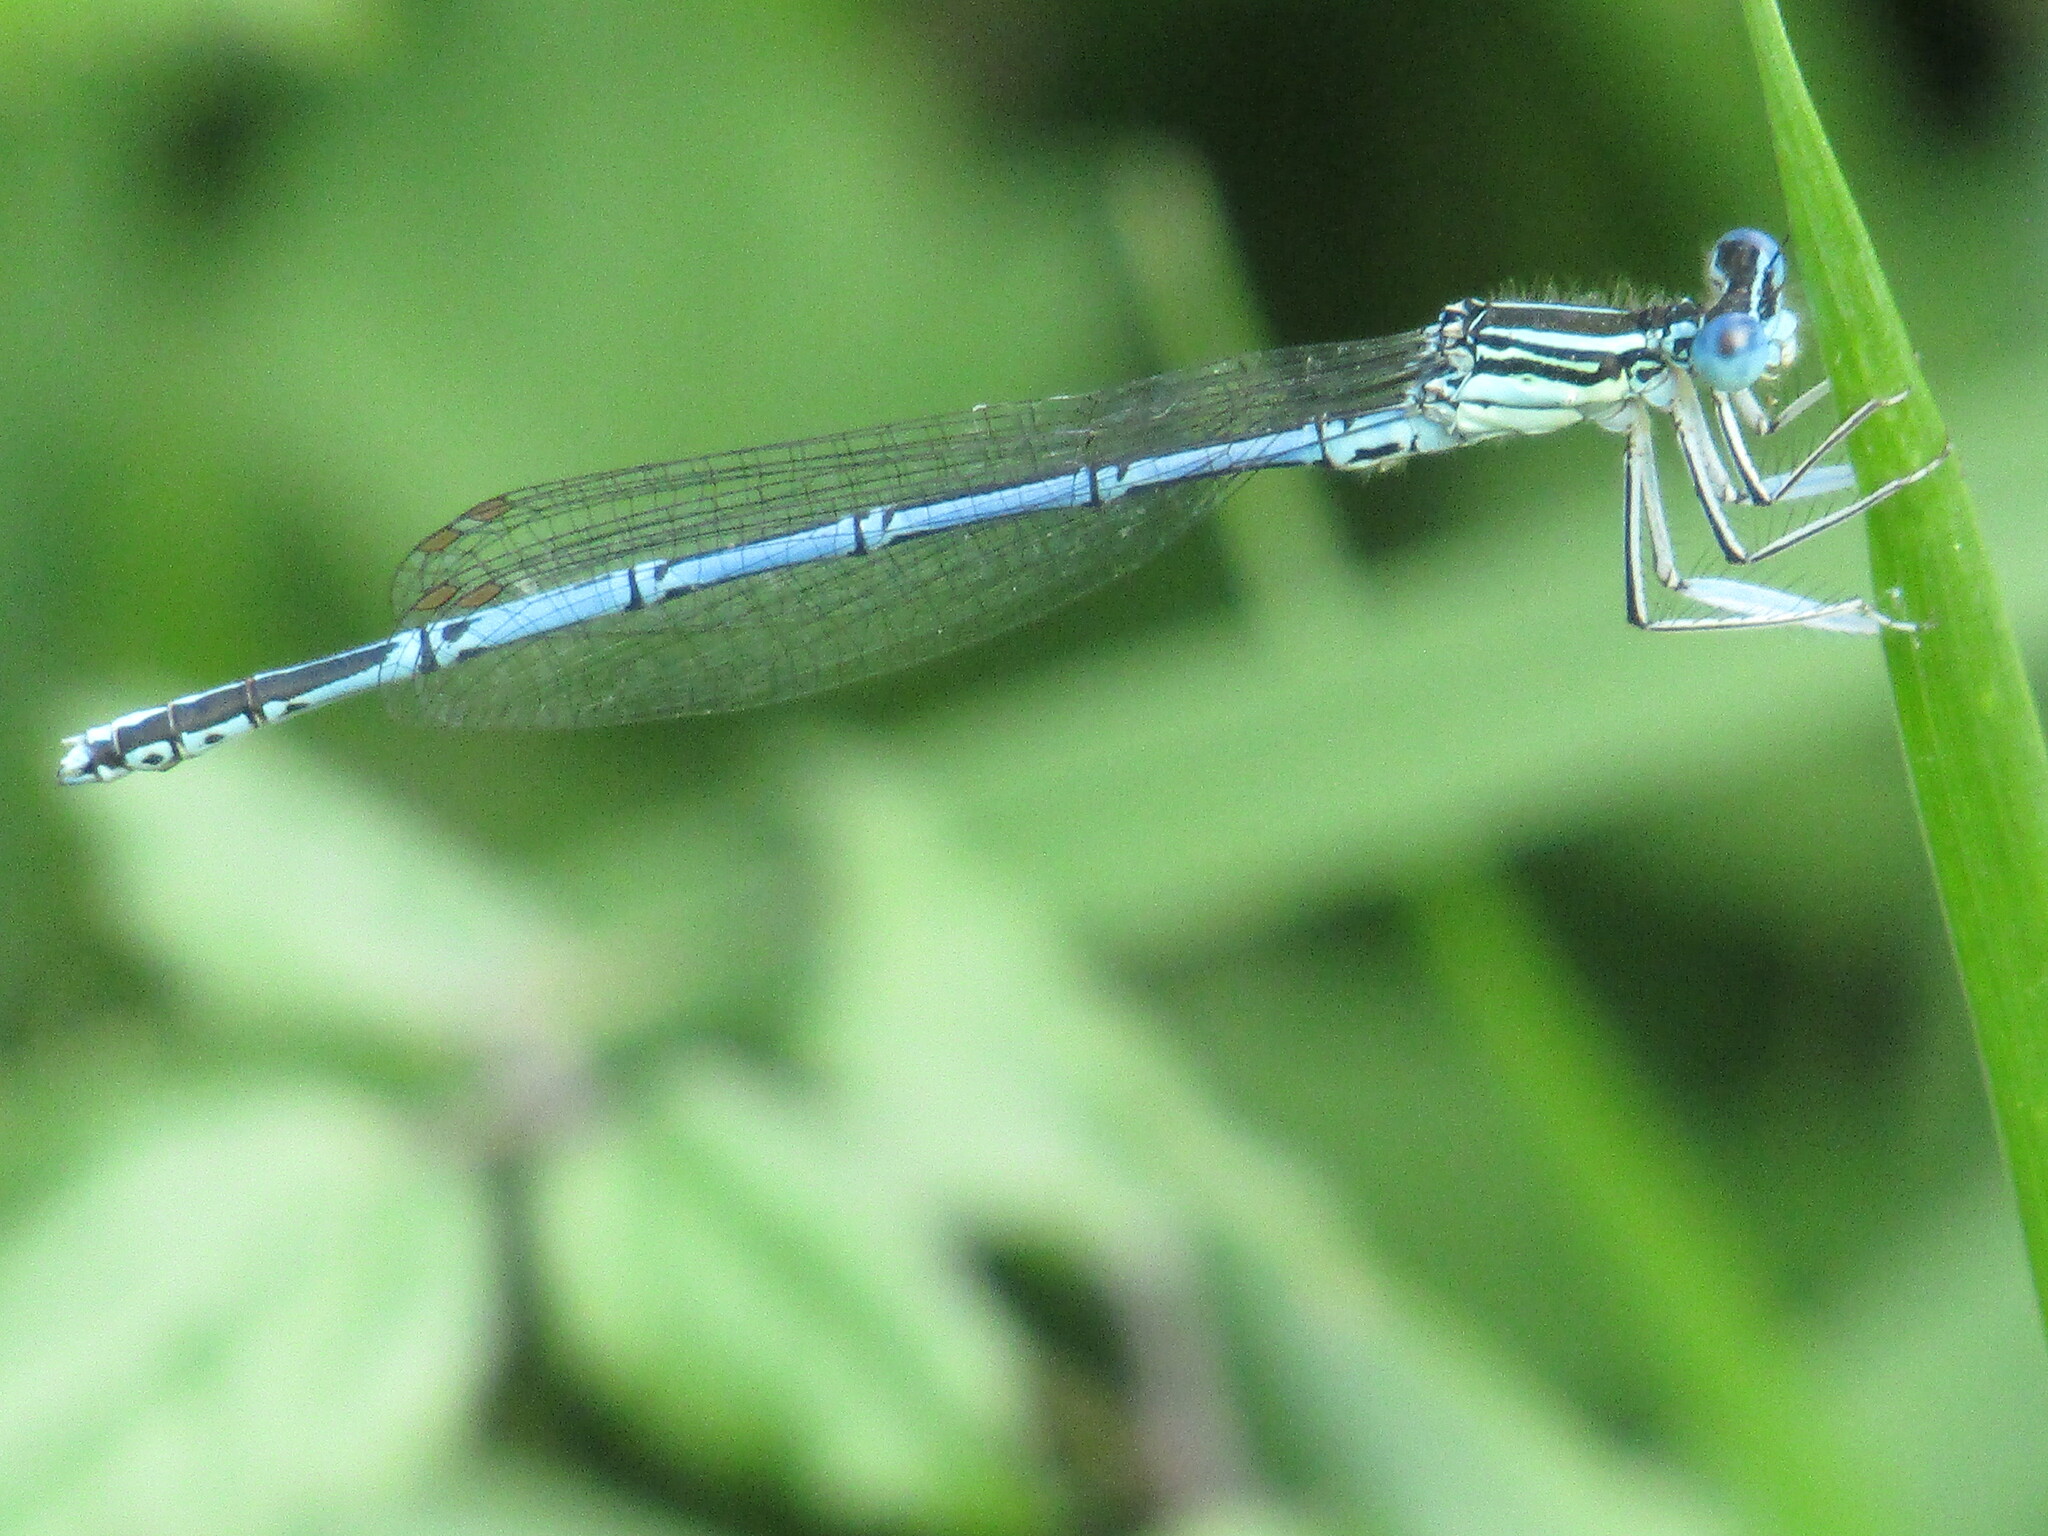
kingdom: Animalia
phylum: Arthropoda
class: Insecta
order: Odonata
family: Platycnemididae
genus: Platycnemis
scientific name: Platycnemis pennipes
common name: White-legged damselfly
